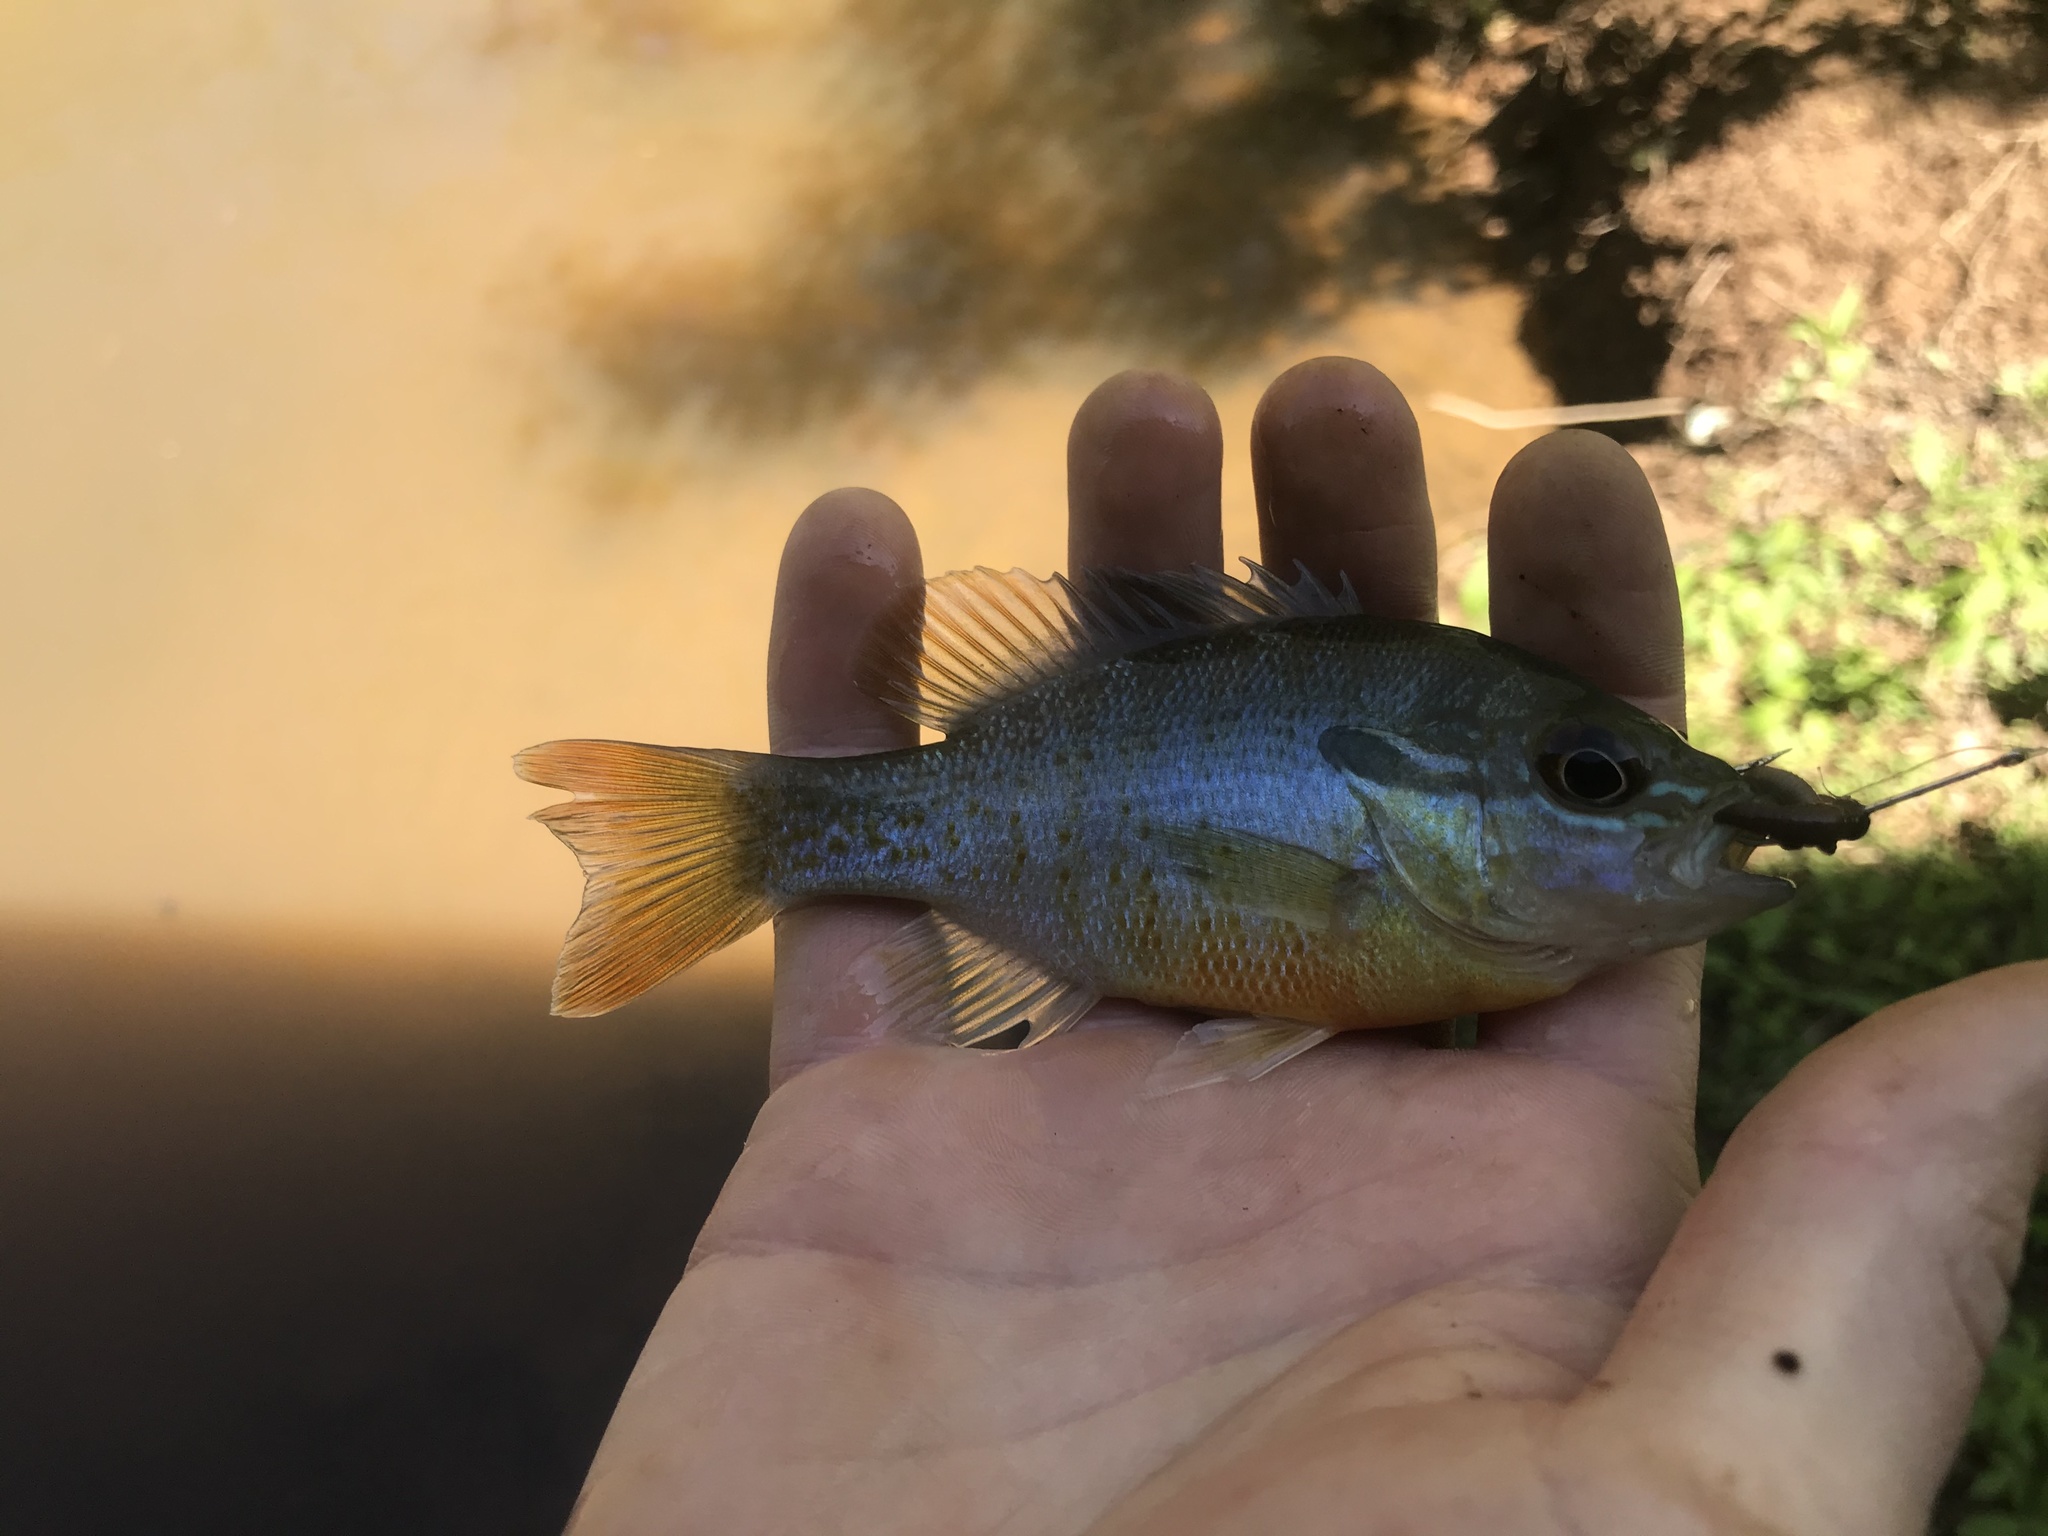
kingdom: Animalia
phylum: Chordata
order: Perciformes
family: Centrarchidae
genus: Lepomis
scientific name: Lepomis auritus
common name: Redbreast sunfish
